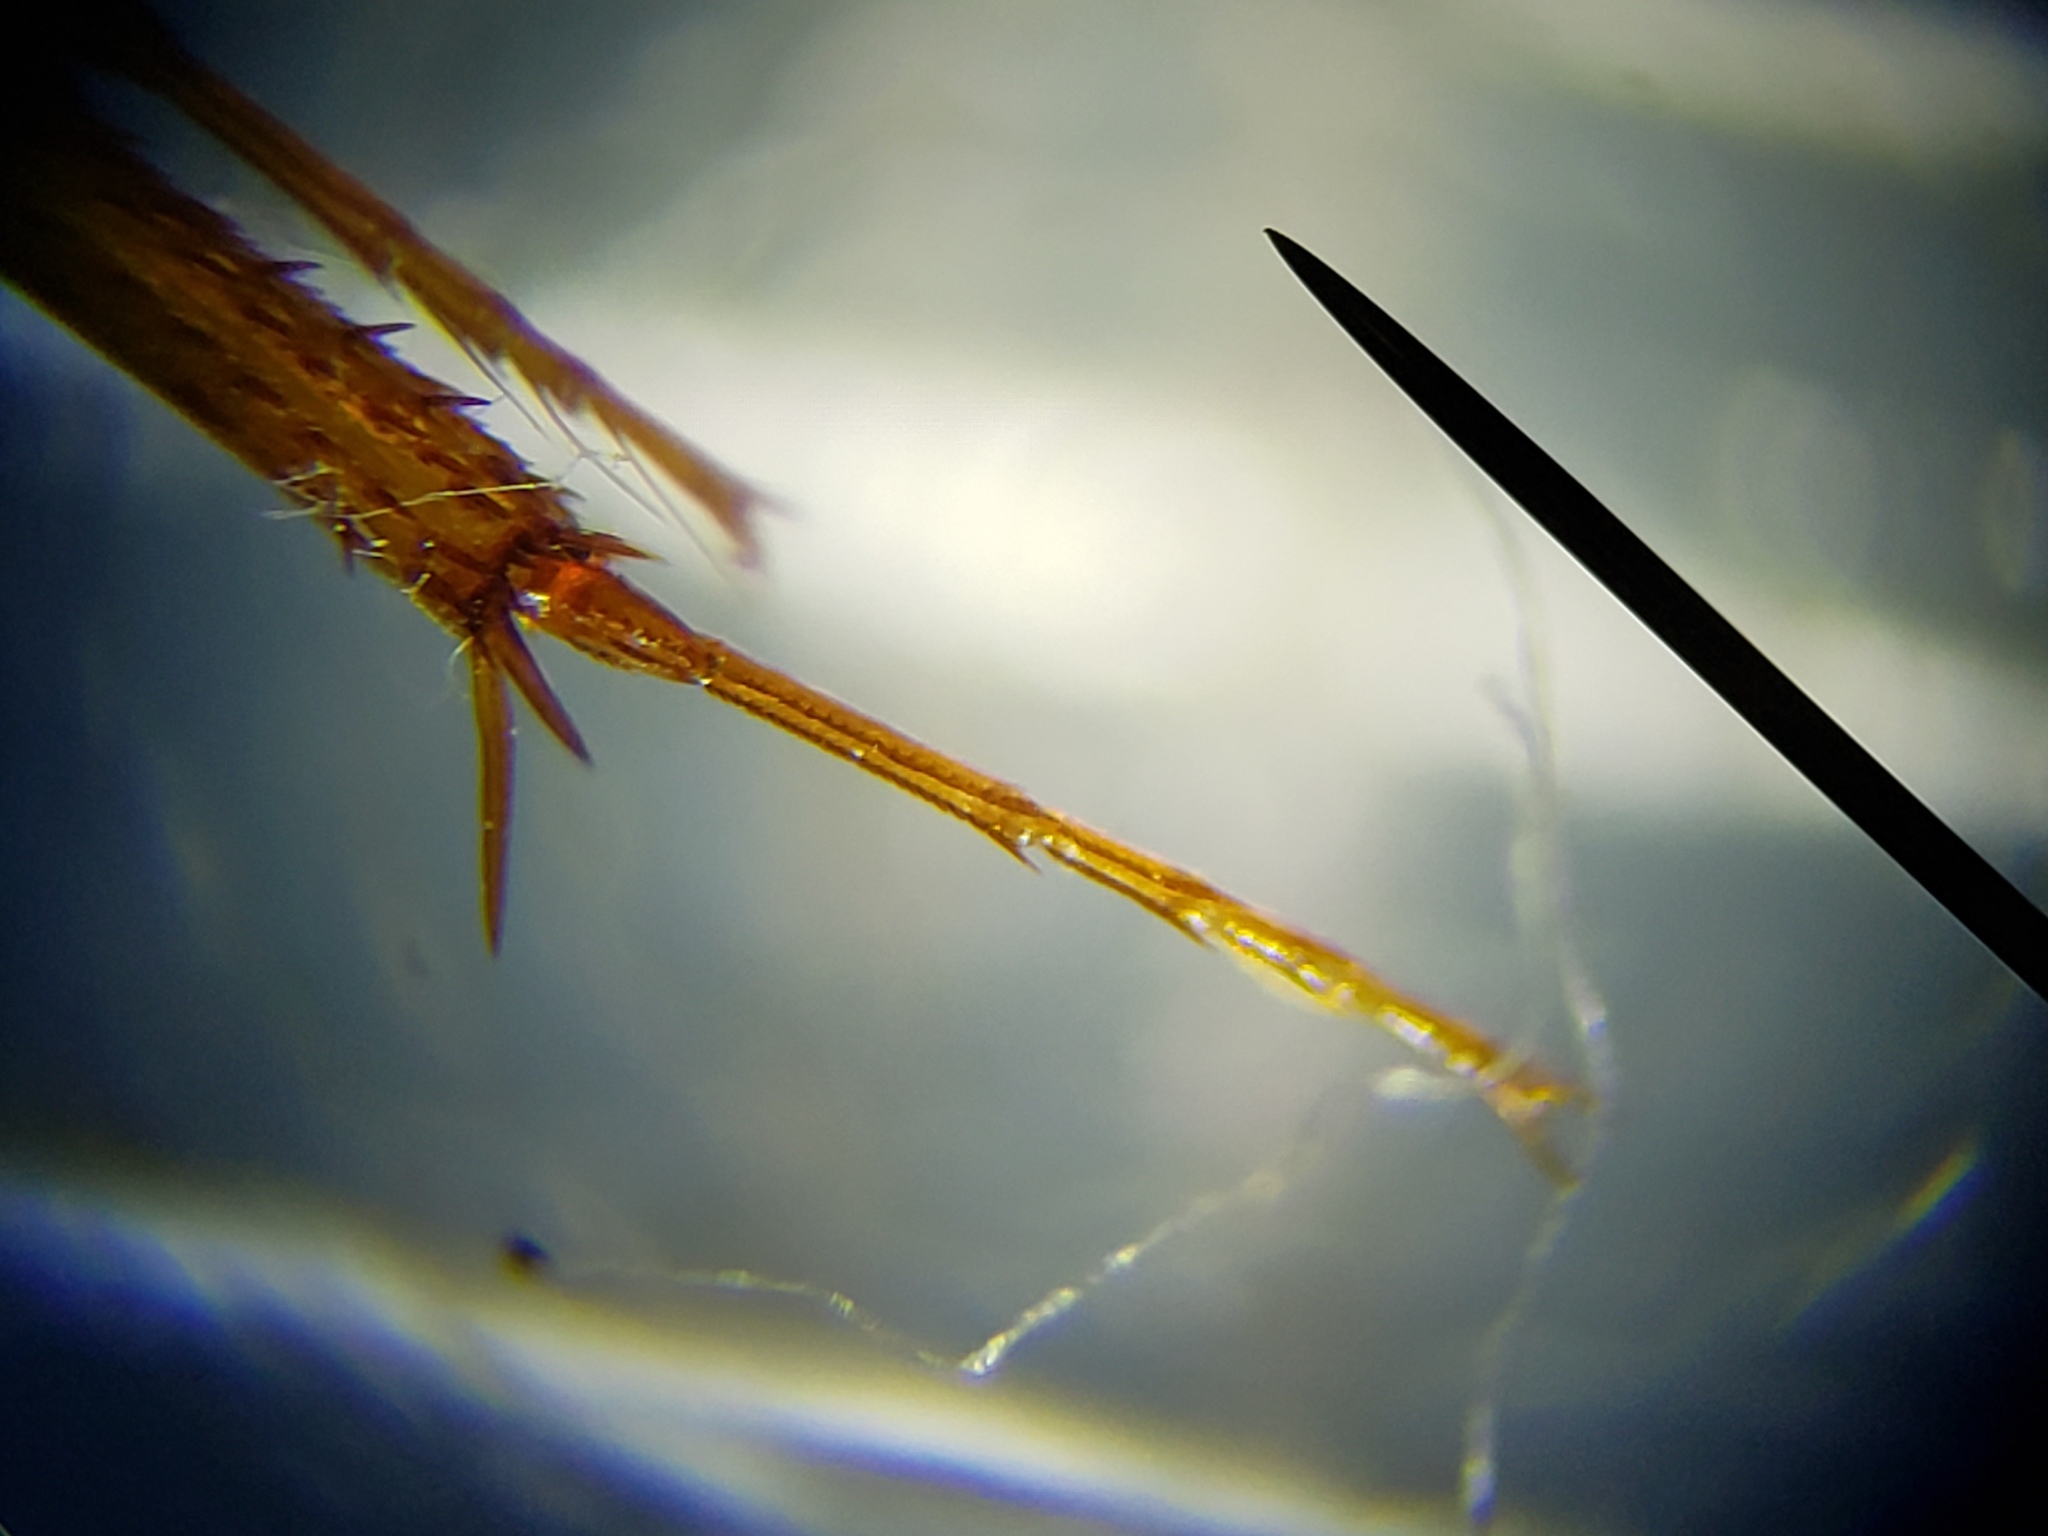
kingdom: Animalia
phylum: Arthropoda
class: Insecta
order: Coleoptera
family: Hydrophilidae
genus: Enochrus
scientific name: Enochrus consortus
